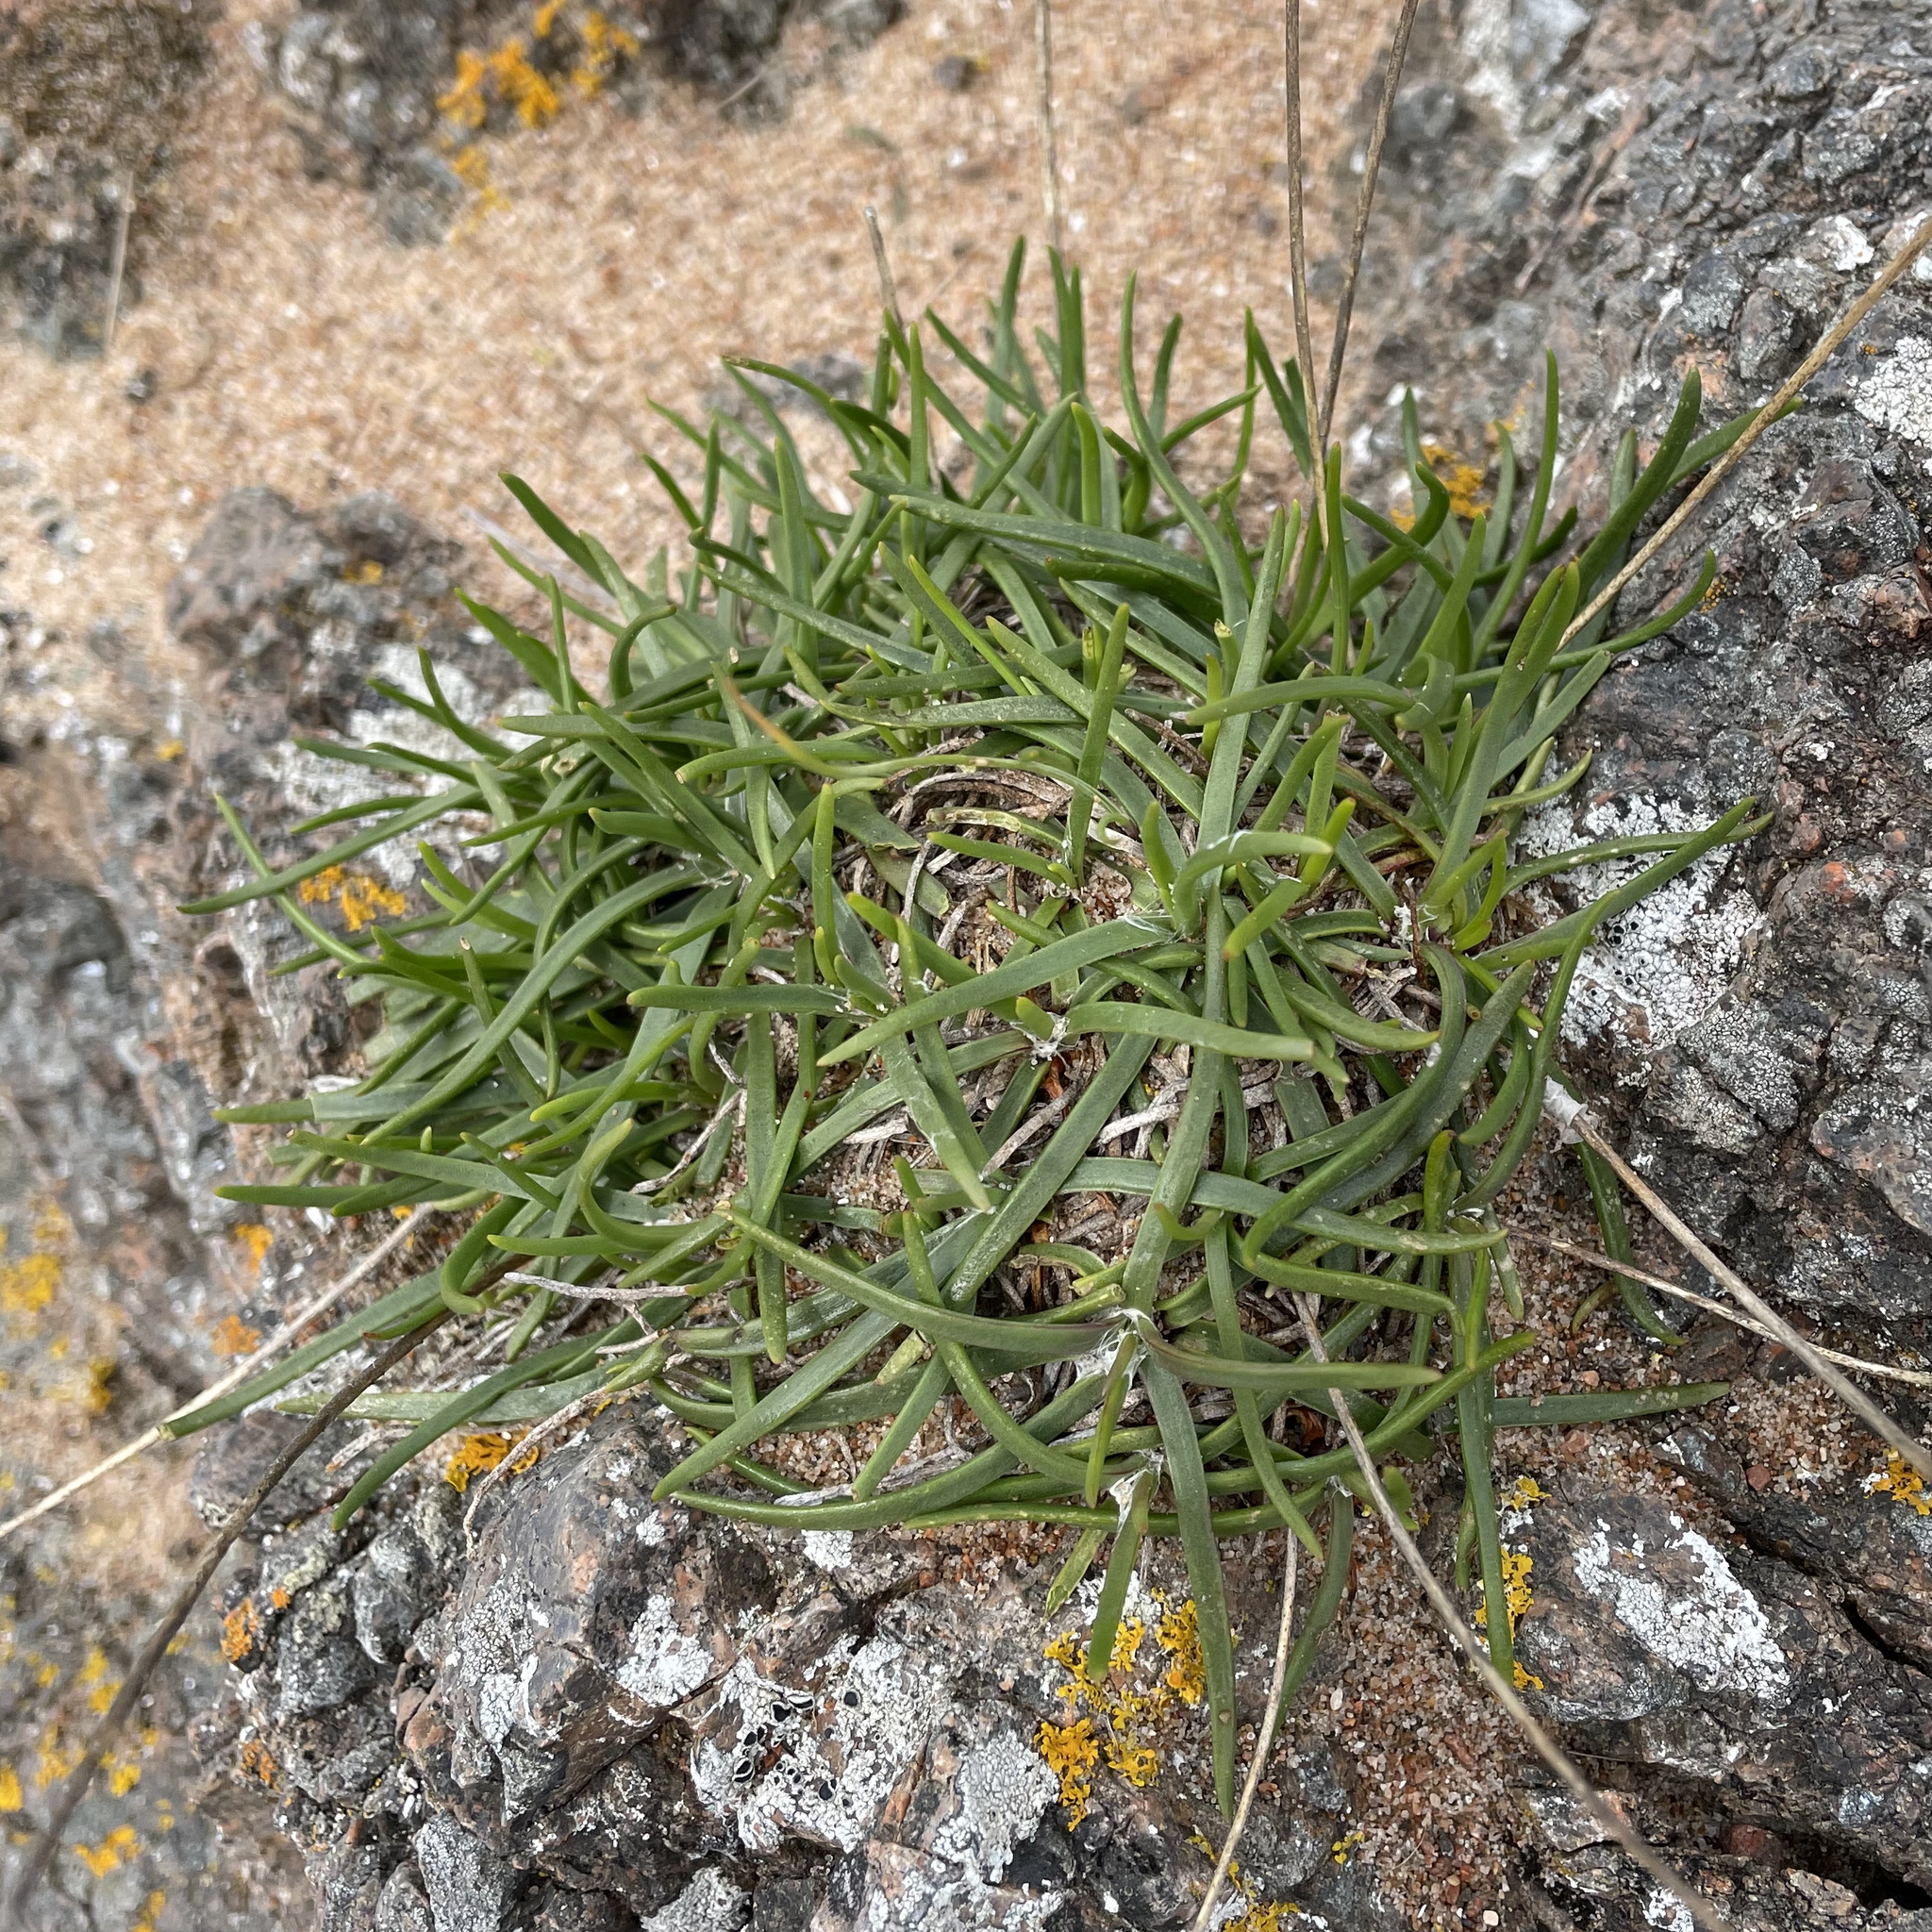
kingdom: Plantae
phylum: Tracheophyta
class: Magnoliopsida
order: Lamiales
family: Plantaginaceae
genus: Plantago
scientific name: Plantago maritima
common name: Sea plantain
